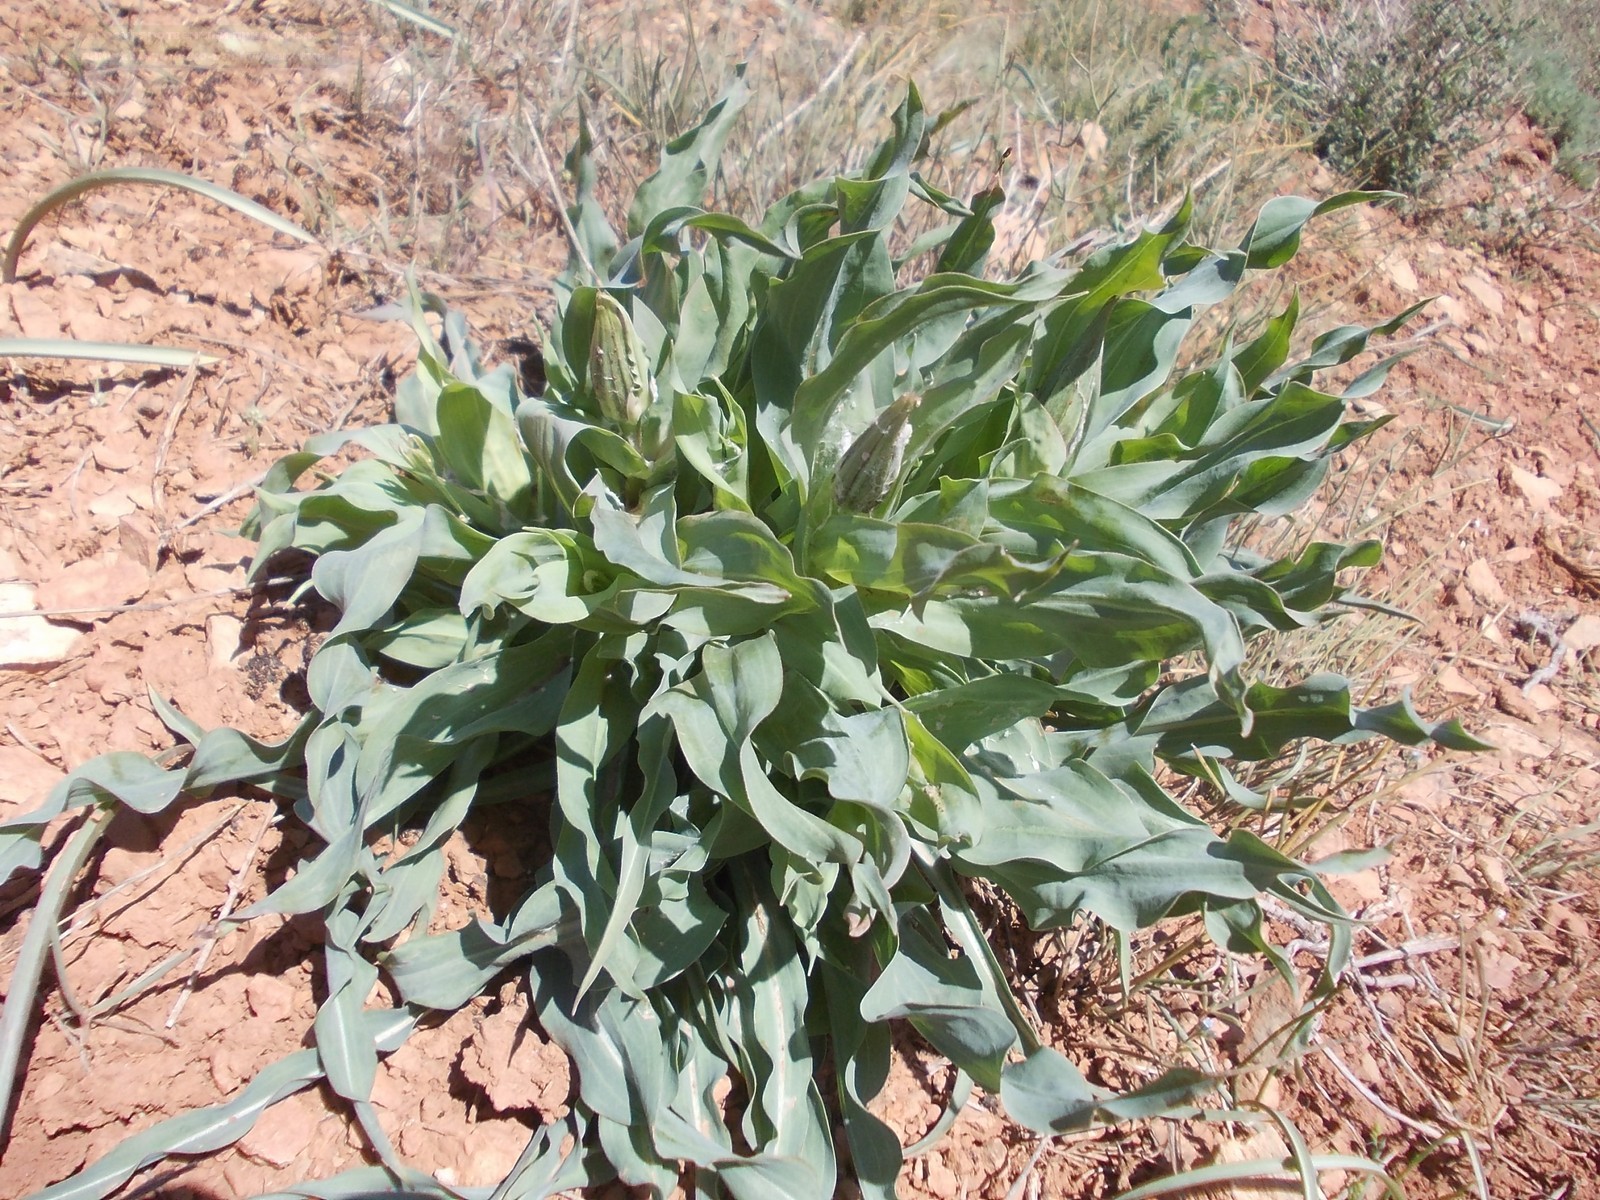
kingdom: Plantae
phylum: Tracheophyta
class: Magnoliopsida
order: Asterales
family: Asteraceae
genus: Tragopogon
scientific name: Tragopogon marginifolius
